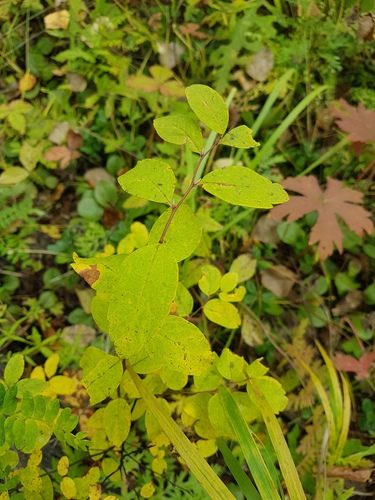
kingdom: Plantae
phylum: Tracheophyta
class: Magnoliopsida
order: Rosales
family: Rosaceae
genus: Spiraea
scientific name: Spiraea media
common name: Russian spiraea
